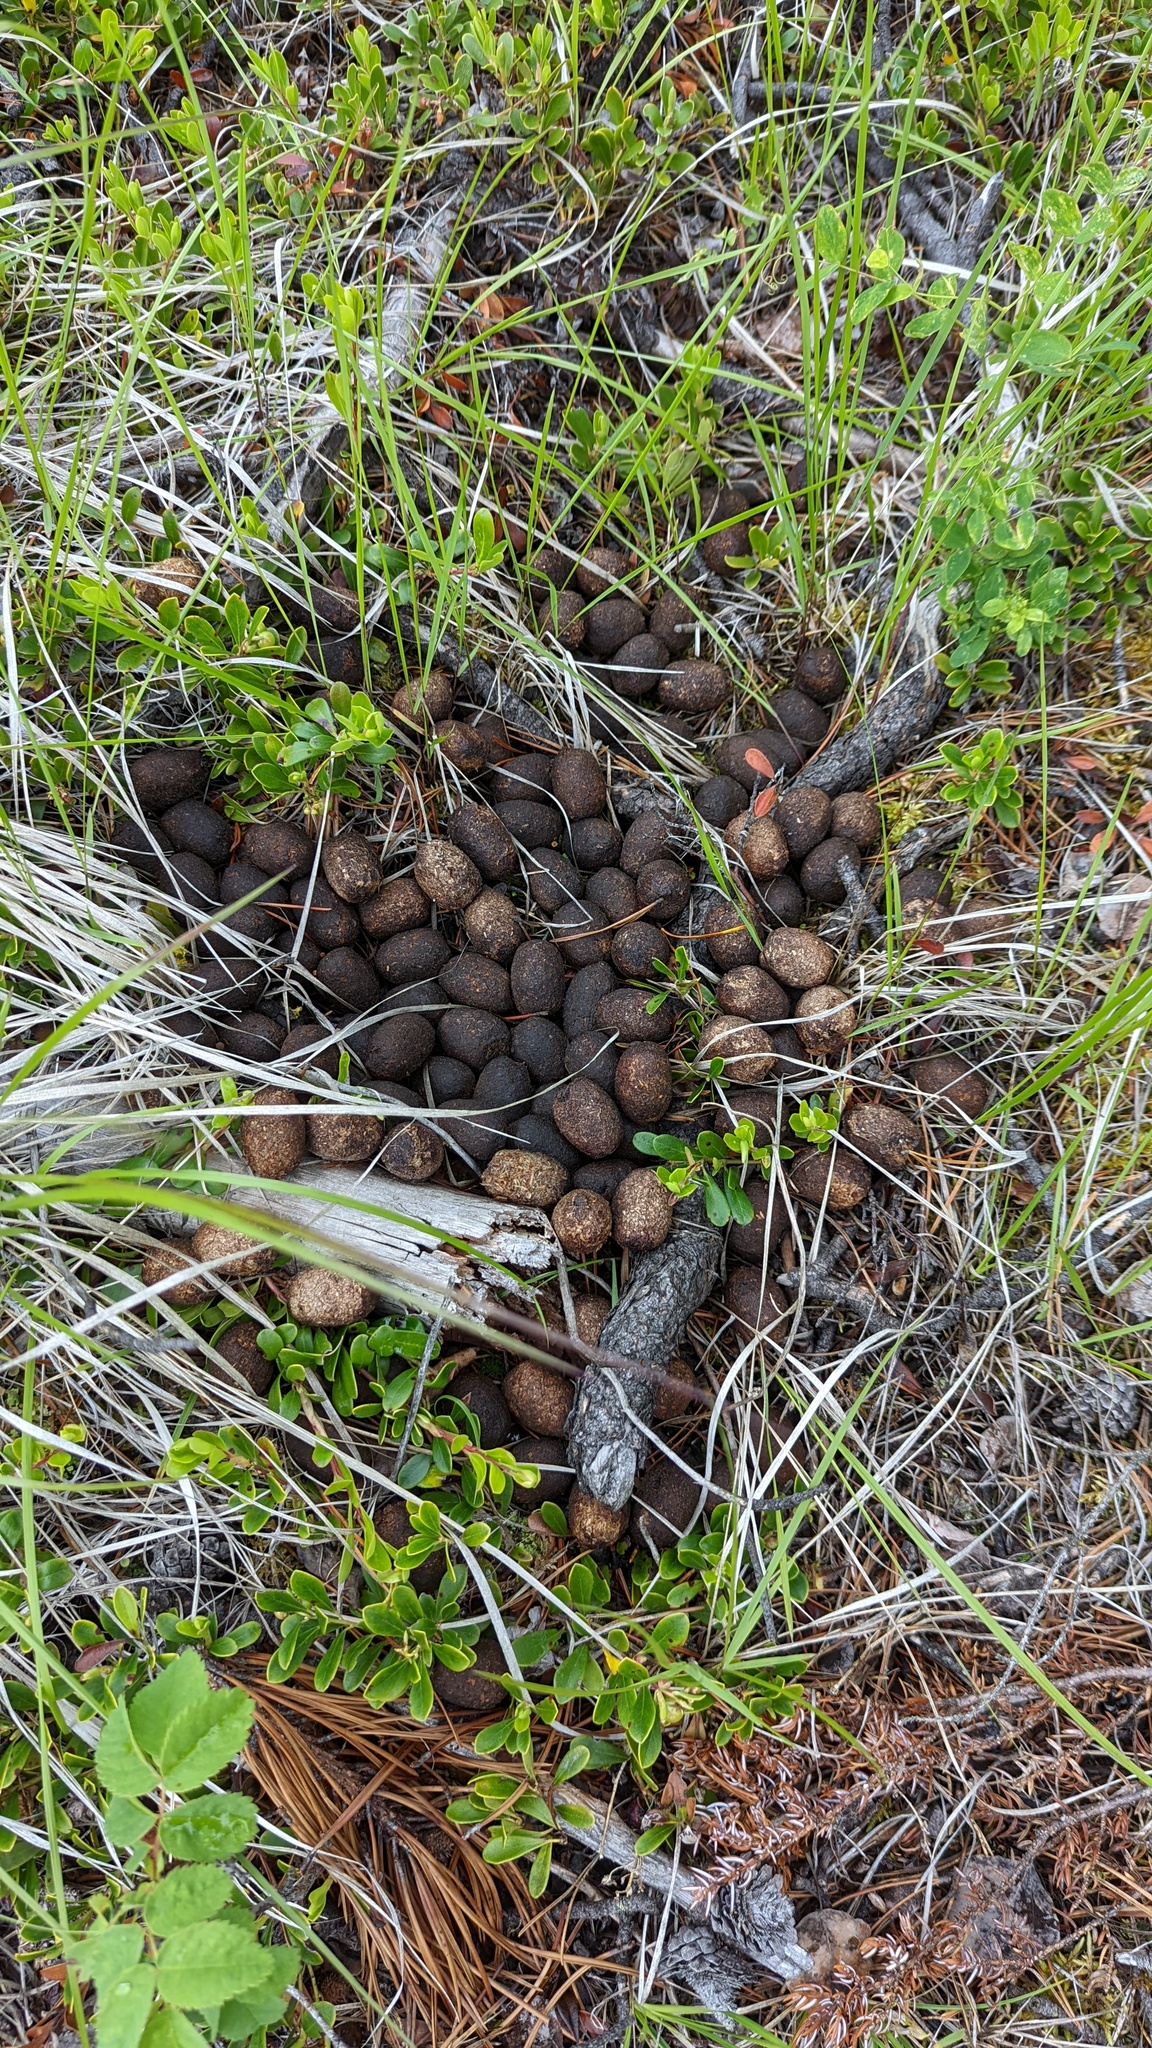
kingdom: Animalia
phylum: Chordata
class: Mammalia
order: Artiodactyla
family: Cervidae
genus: Alces
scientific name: Alces alces
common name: Moose
